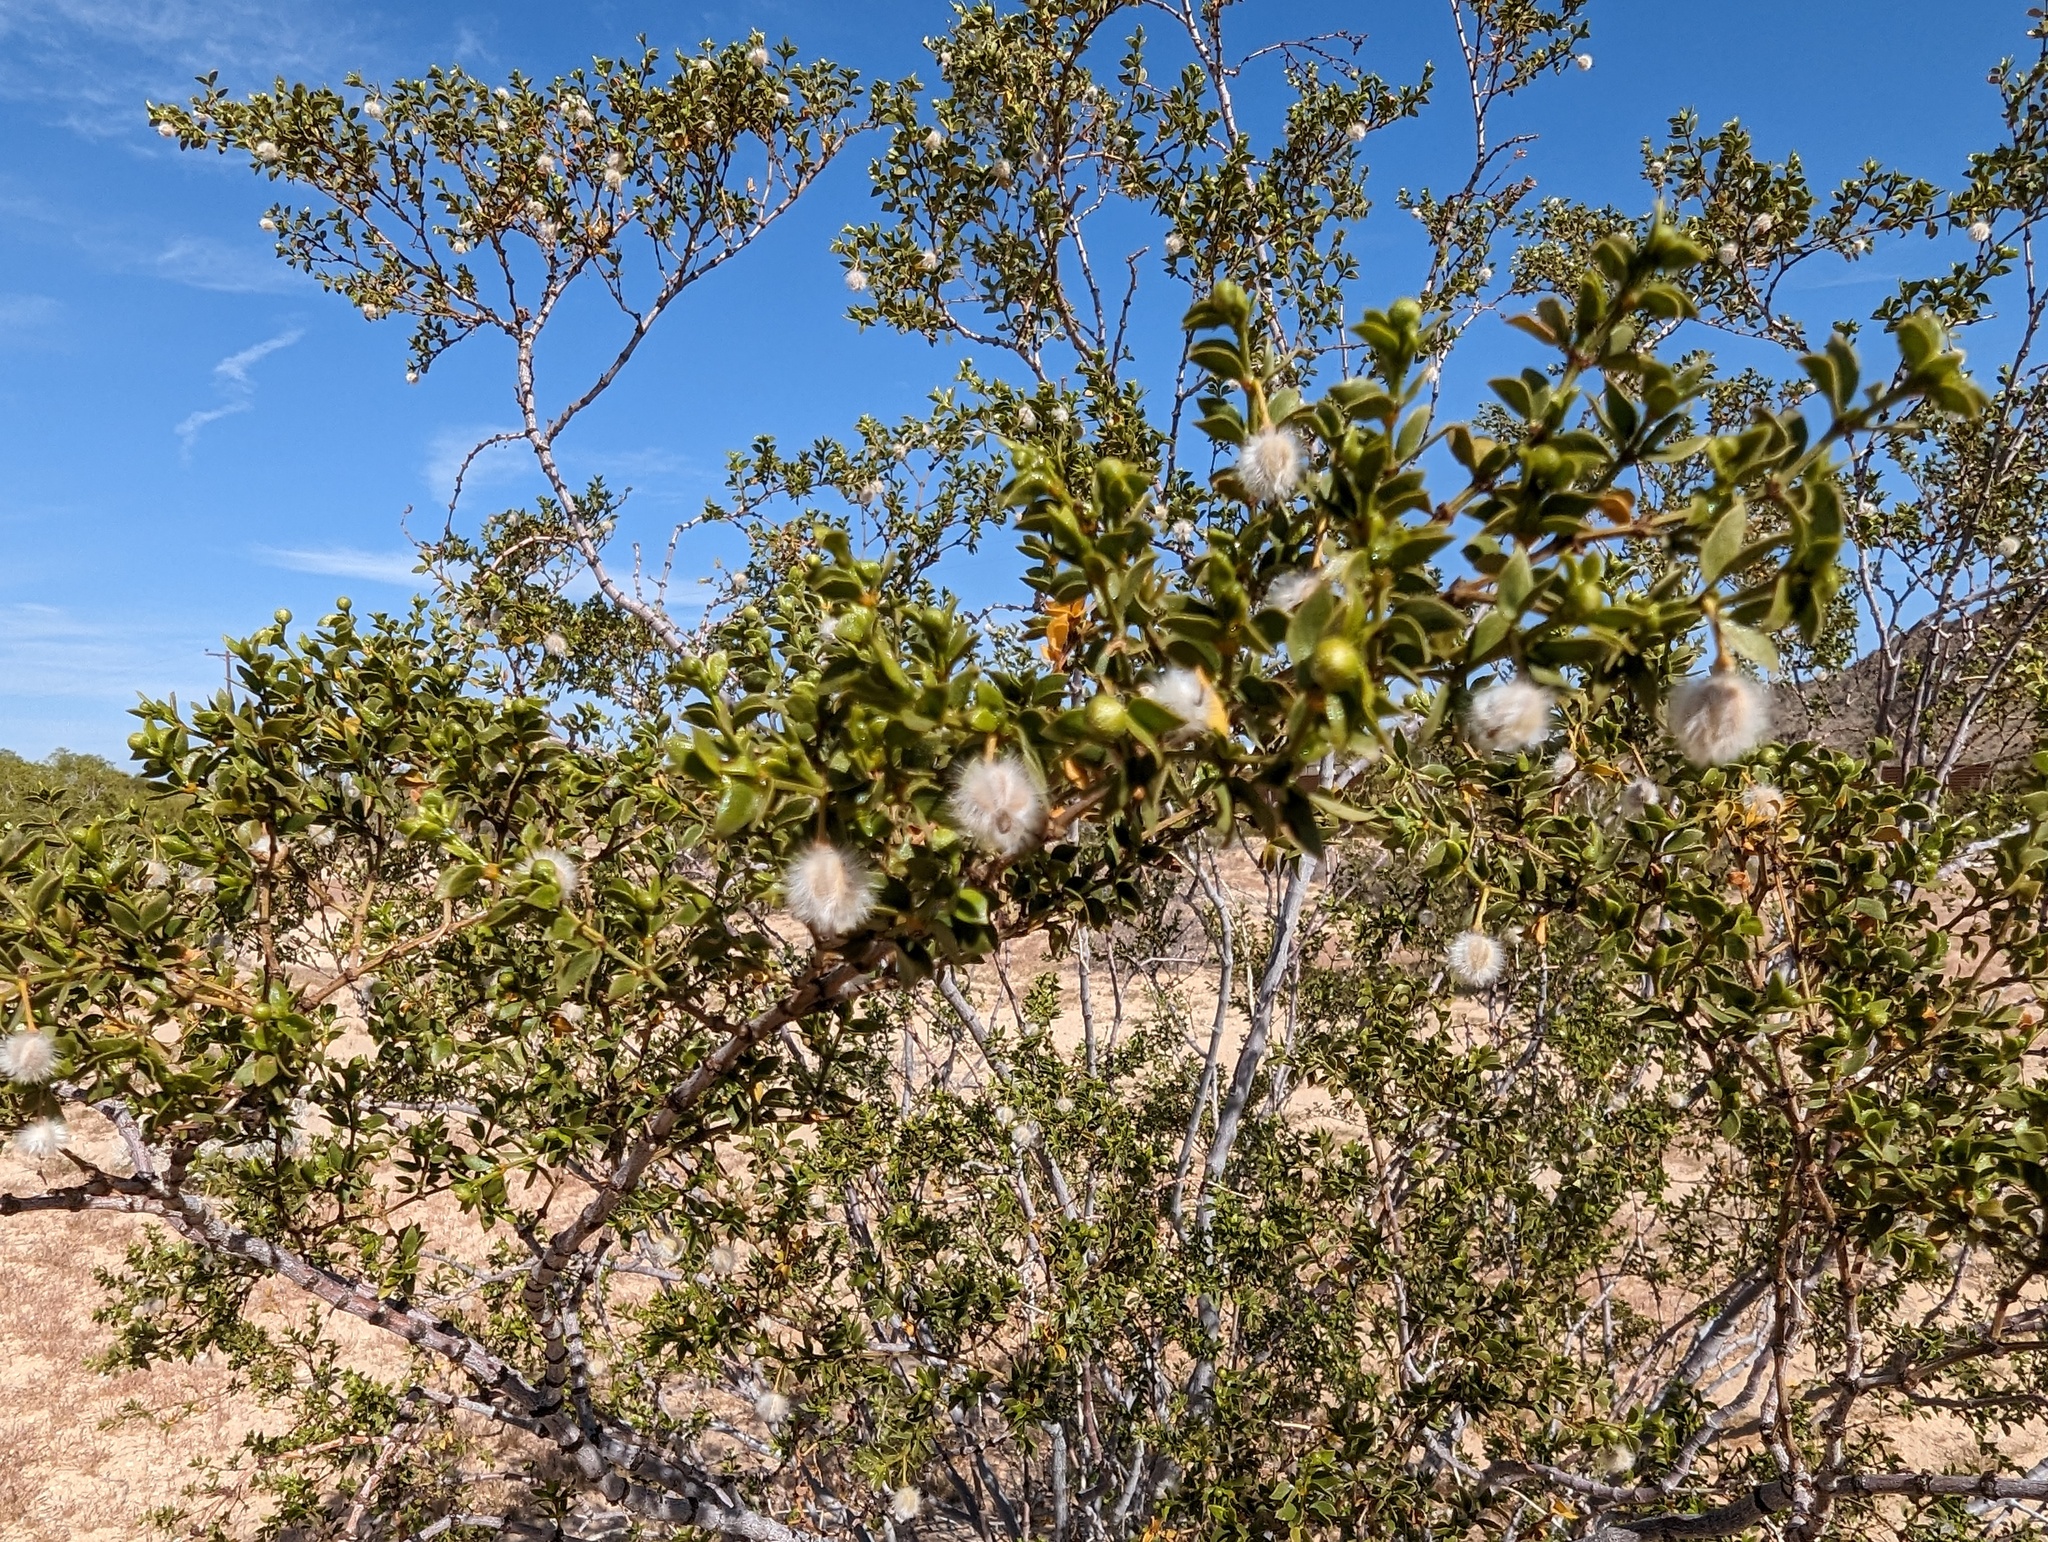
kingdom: Plantae
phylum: Tracheophyta
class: Magnoliopsida
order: Zygophyllales
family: Zygophyllaceae
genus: Larrea
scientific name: Larrea tridentata
